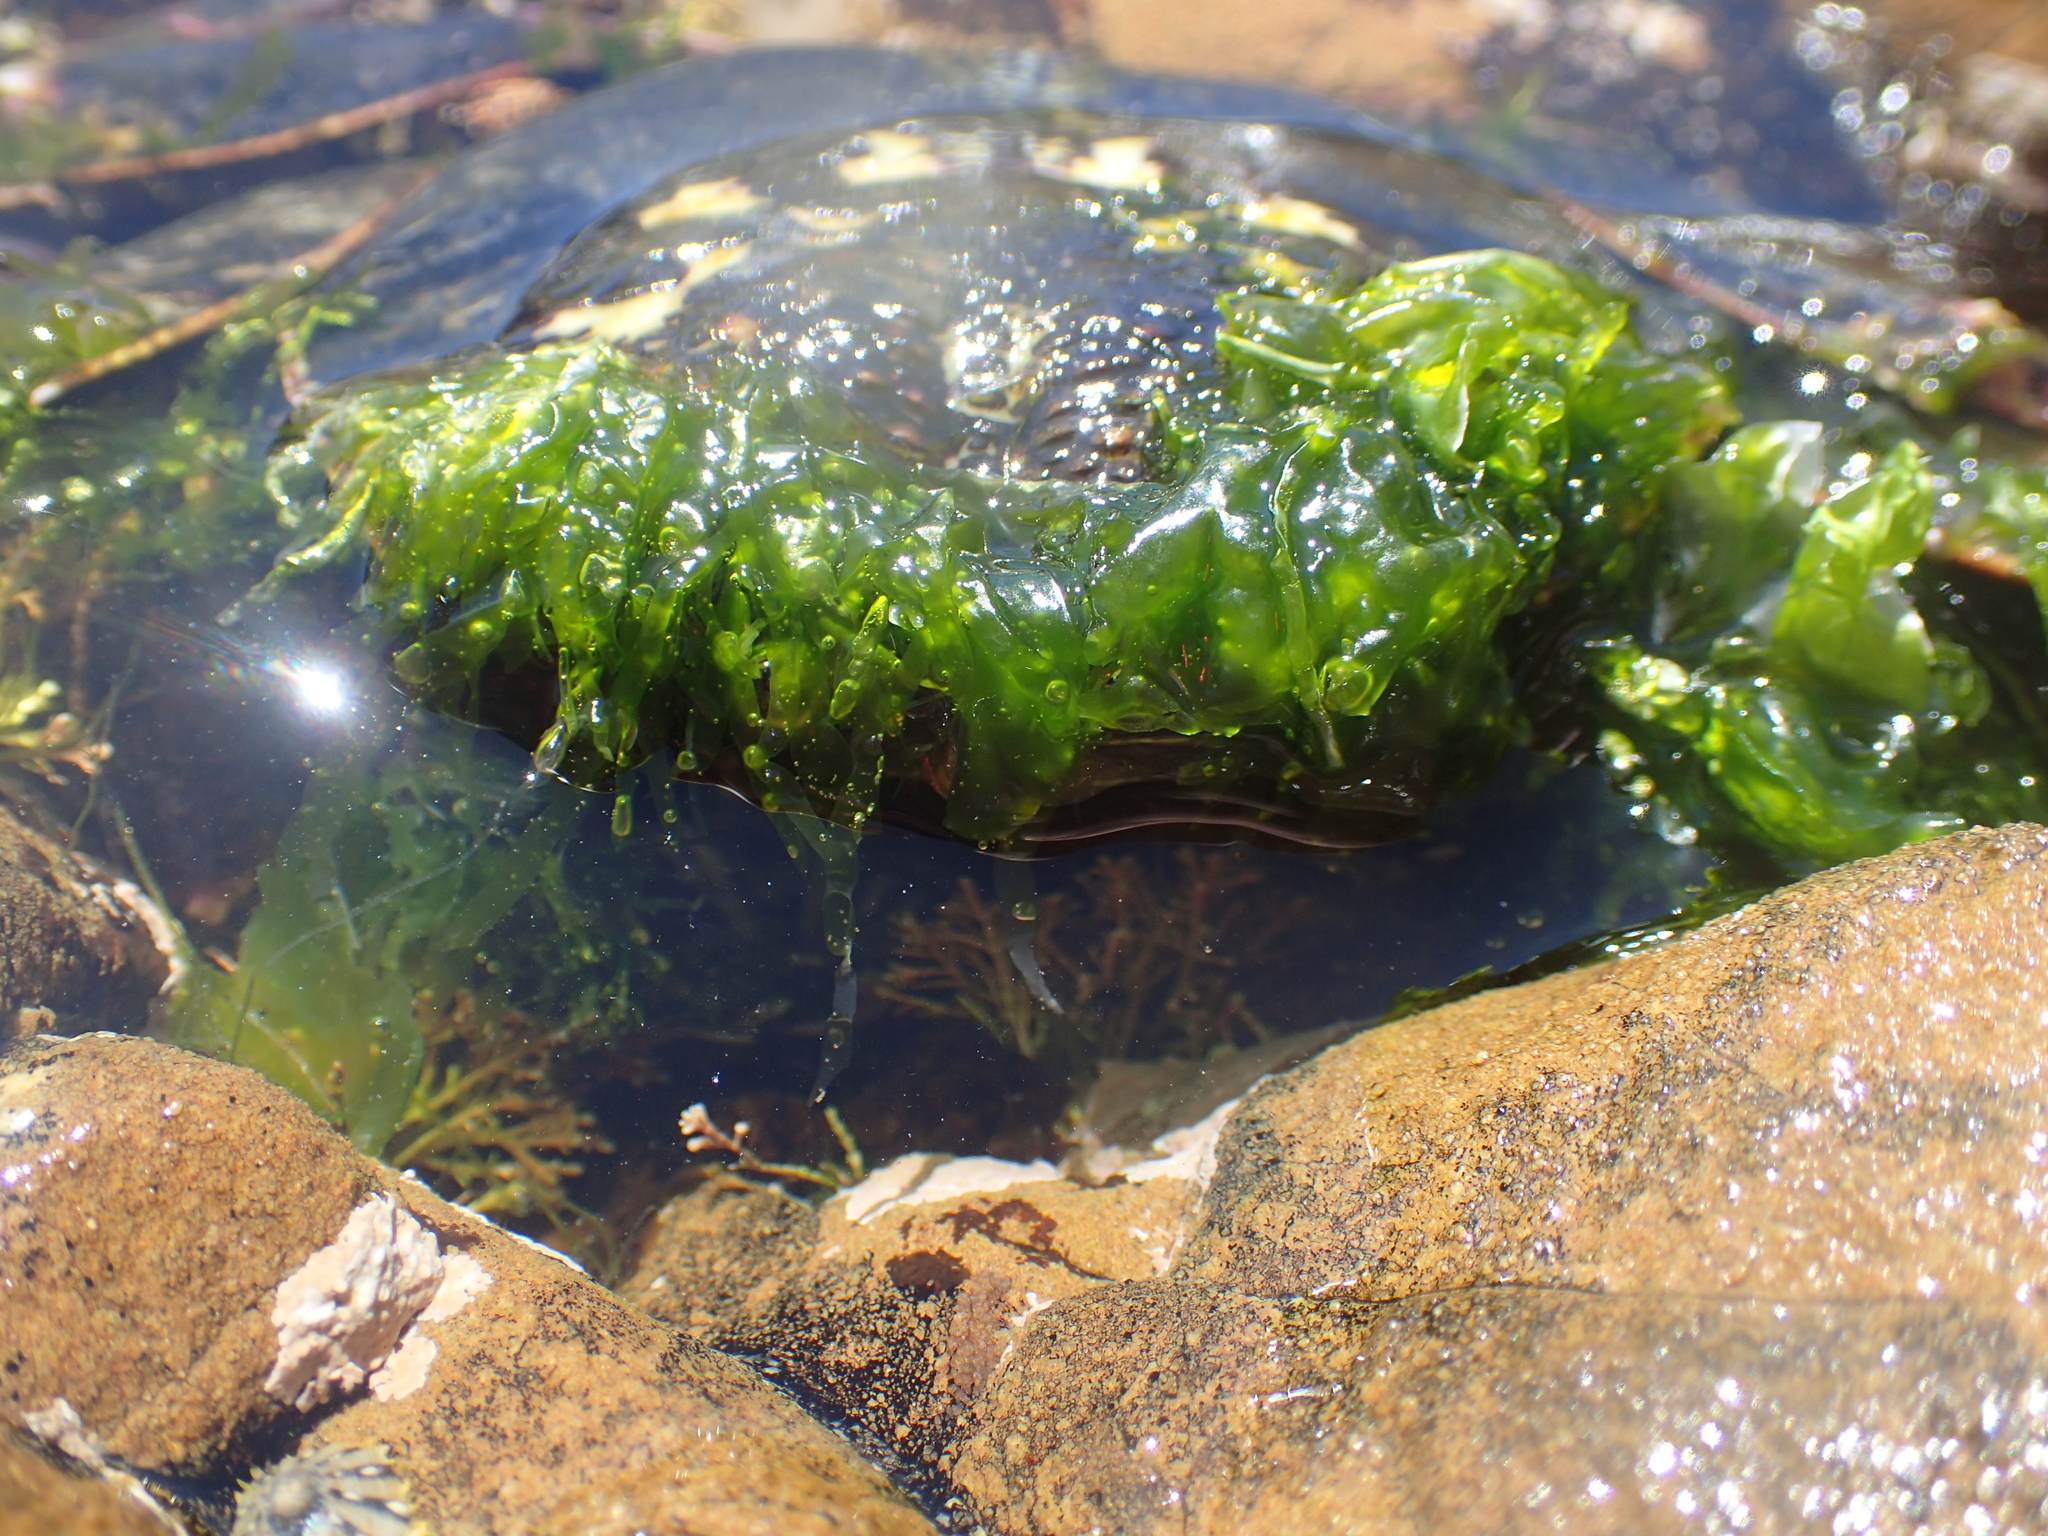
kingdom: Animalia
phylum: Arthropoda
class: Malacostraca
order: Decapoda
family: Grapsidae
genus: Leptograpsus
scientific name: Leptograpsus variegatus
